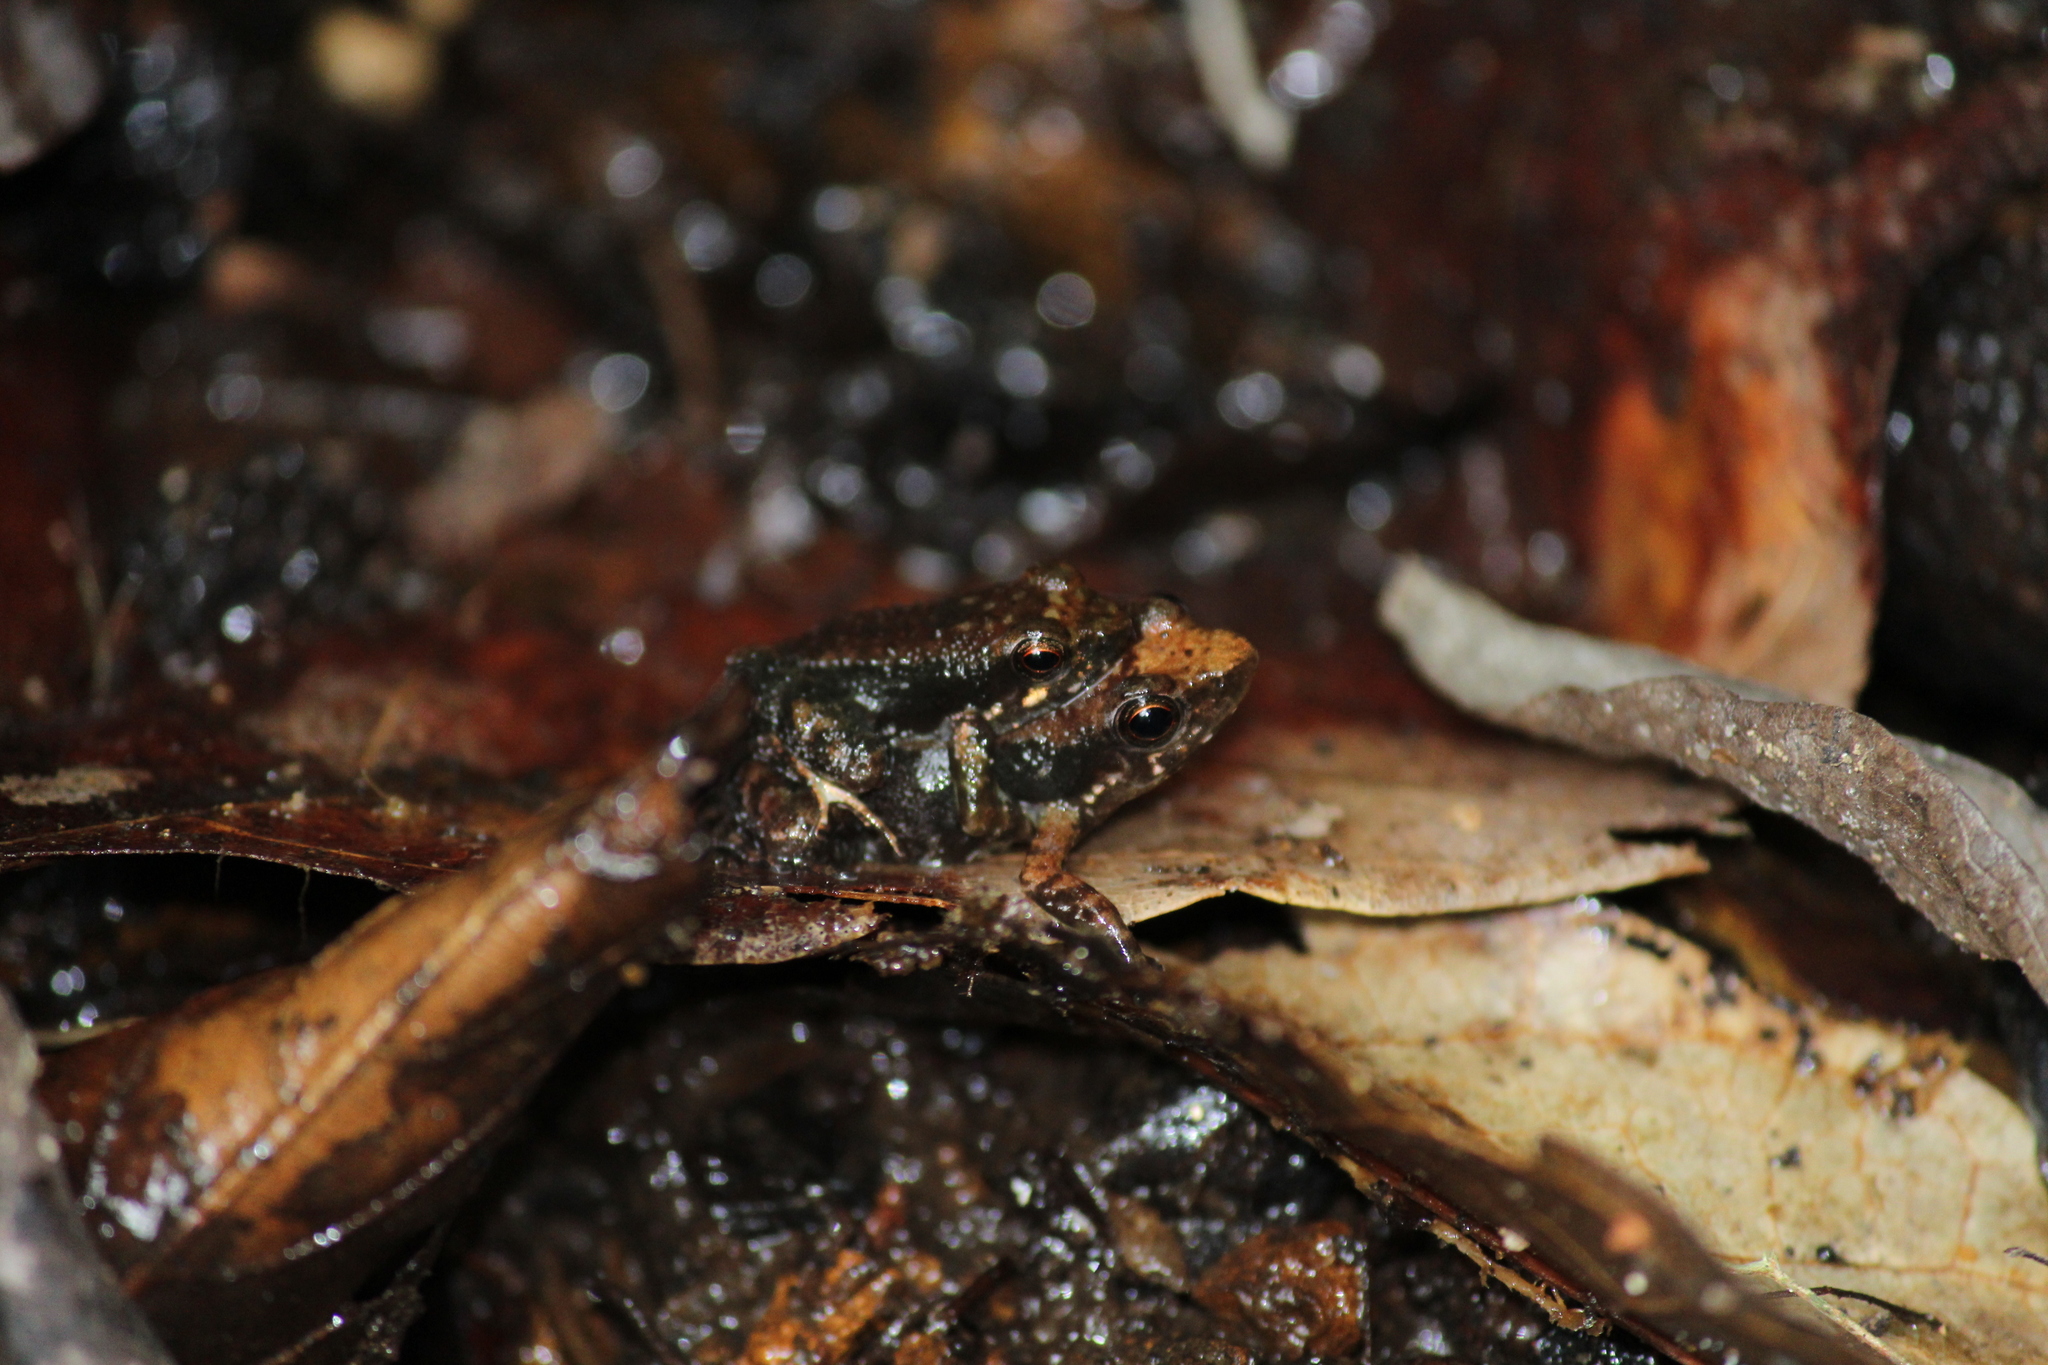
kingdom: Animalia
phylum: Chordata
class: Amphibia
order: Anura
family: Micrixalidae
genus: Micrixalus
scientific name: Micrixalus elegans
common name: Elegant dancing frog
